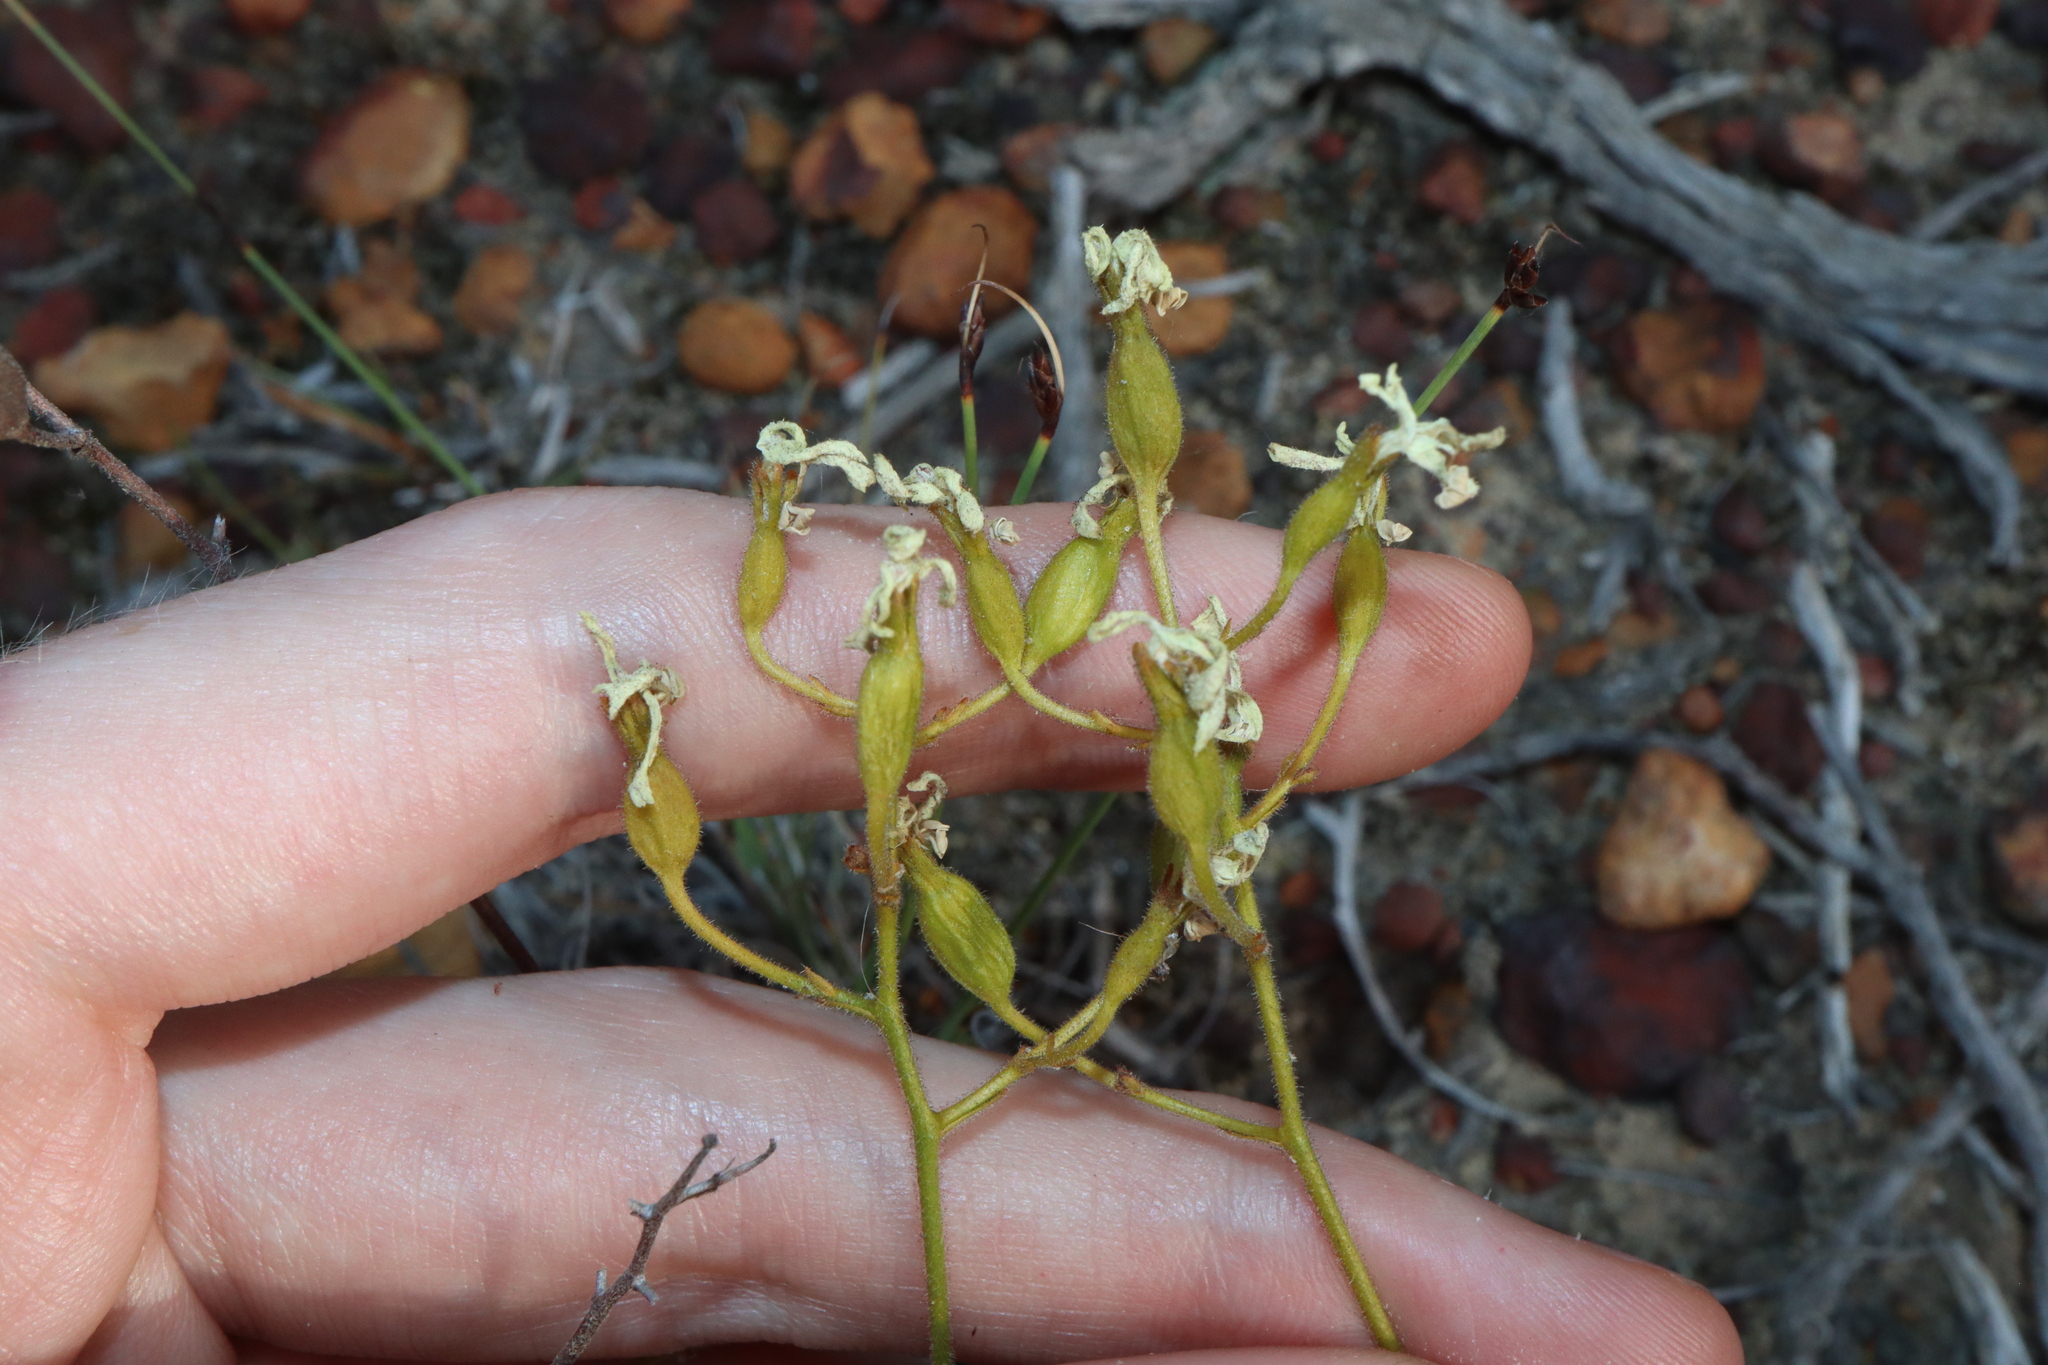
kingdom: Plantae
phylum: Tracheophyta
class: Magnoliopsida
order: Asterales
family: Stylidiaceae
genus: Stylidium
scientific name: Stylidium caricifolium
